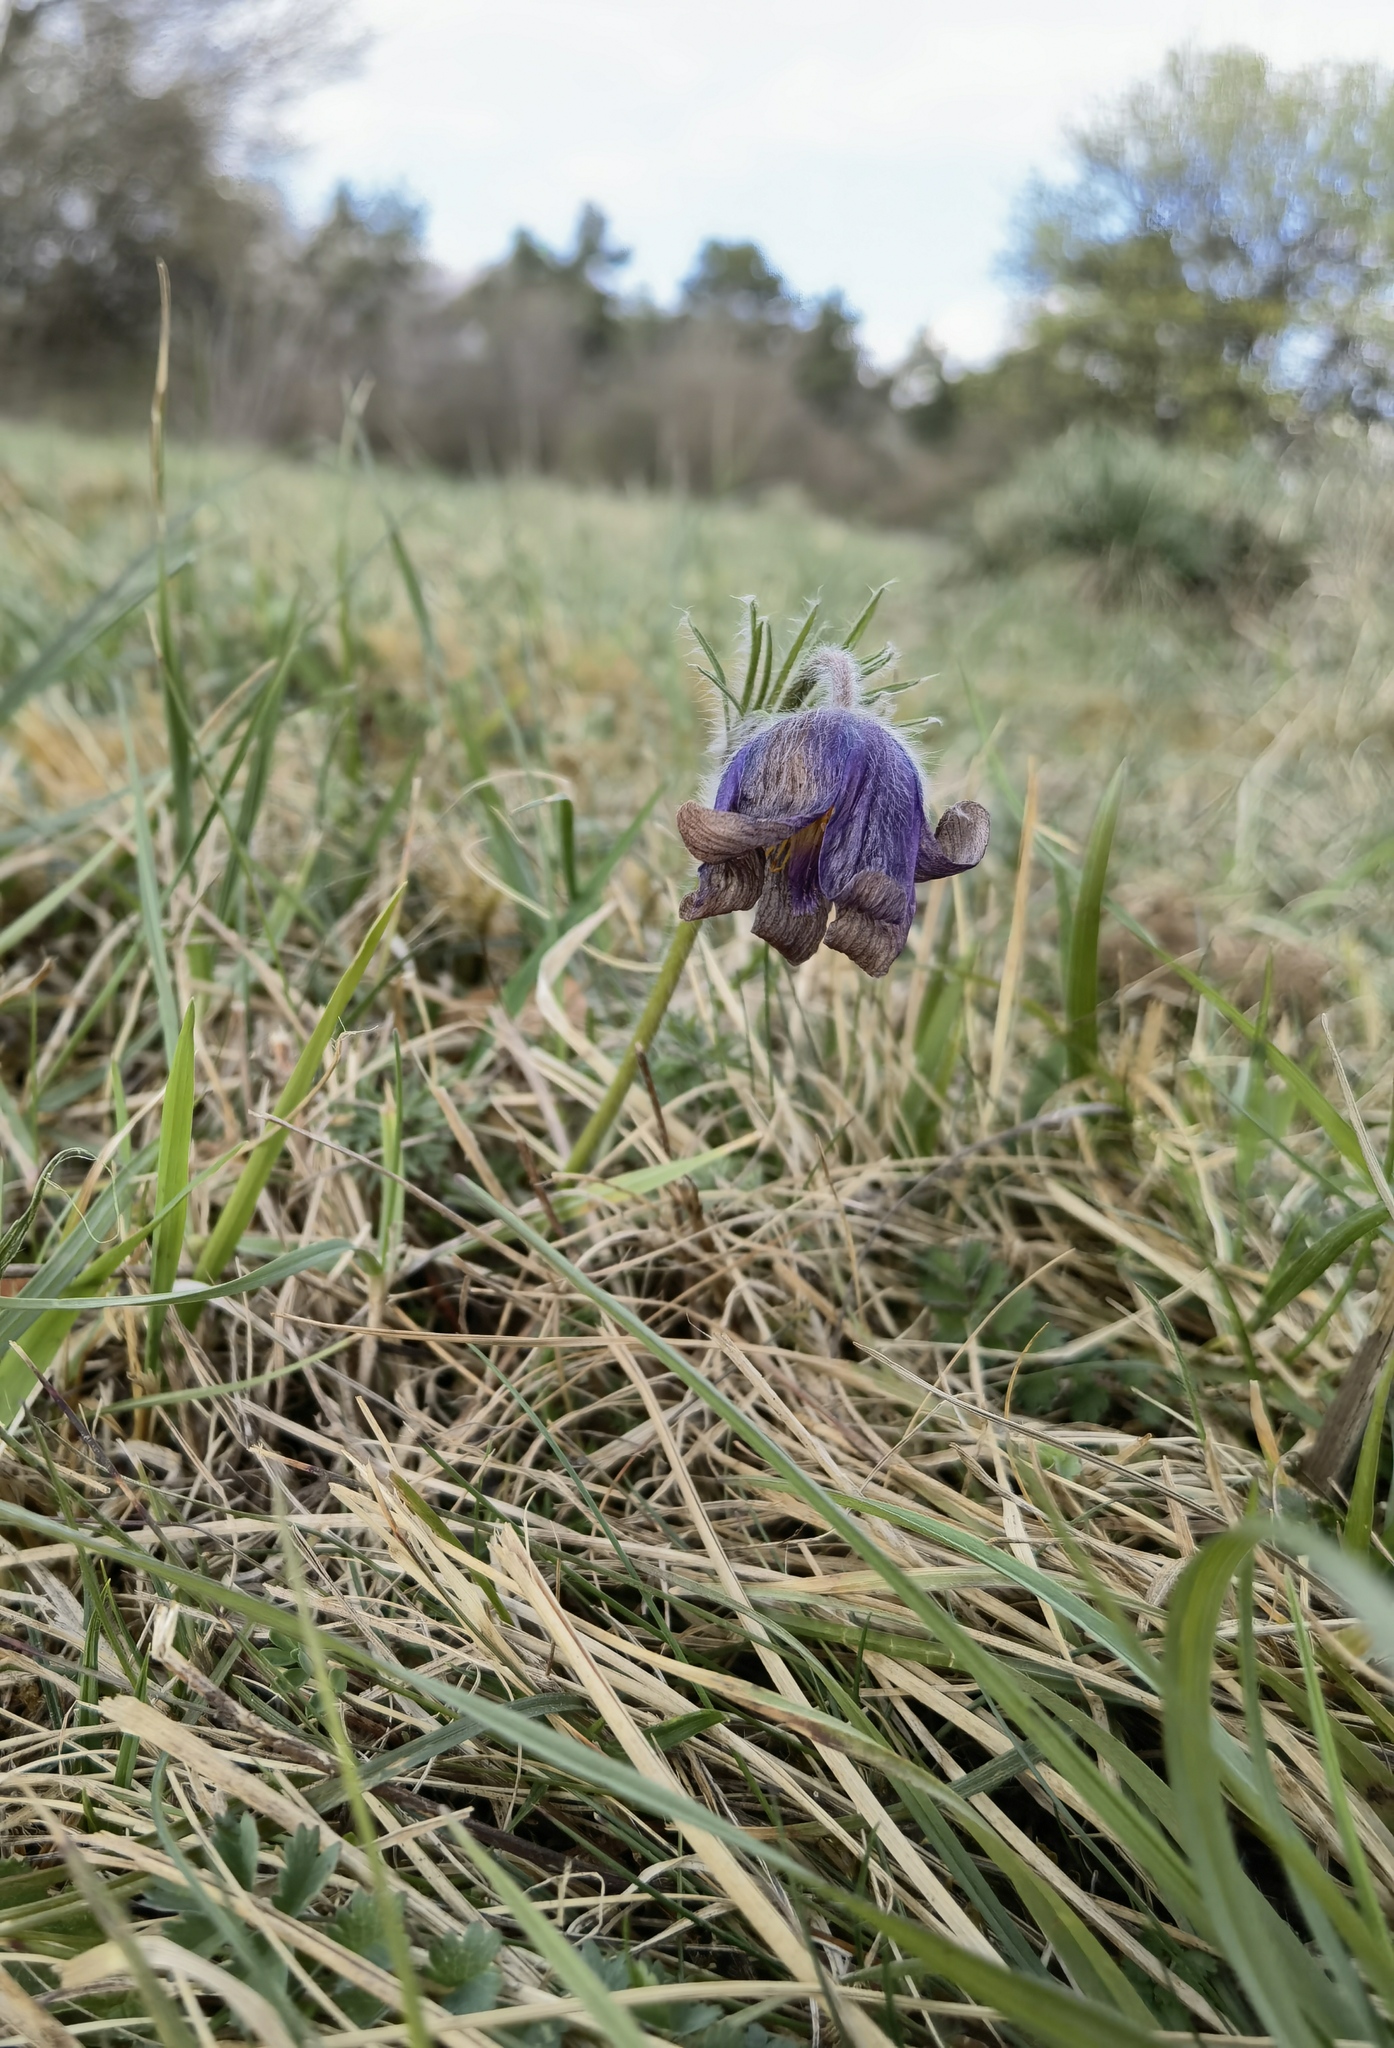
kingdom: Plantae
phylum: Tracheophyta
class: Magnoliopsida
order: Ranunculales
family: Ranunculaceae
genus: Pulsatilla
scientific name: Pulsatilla vulgaris
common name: Pasqueflower
